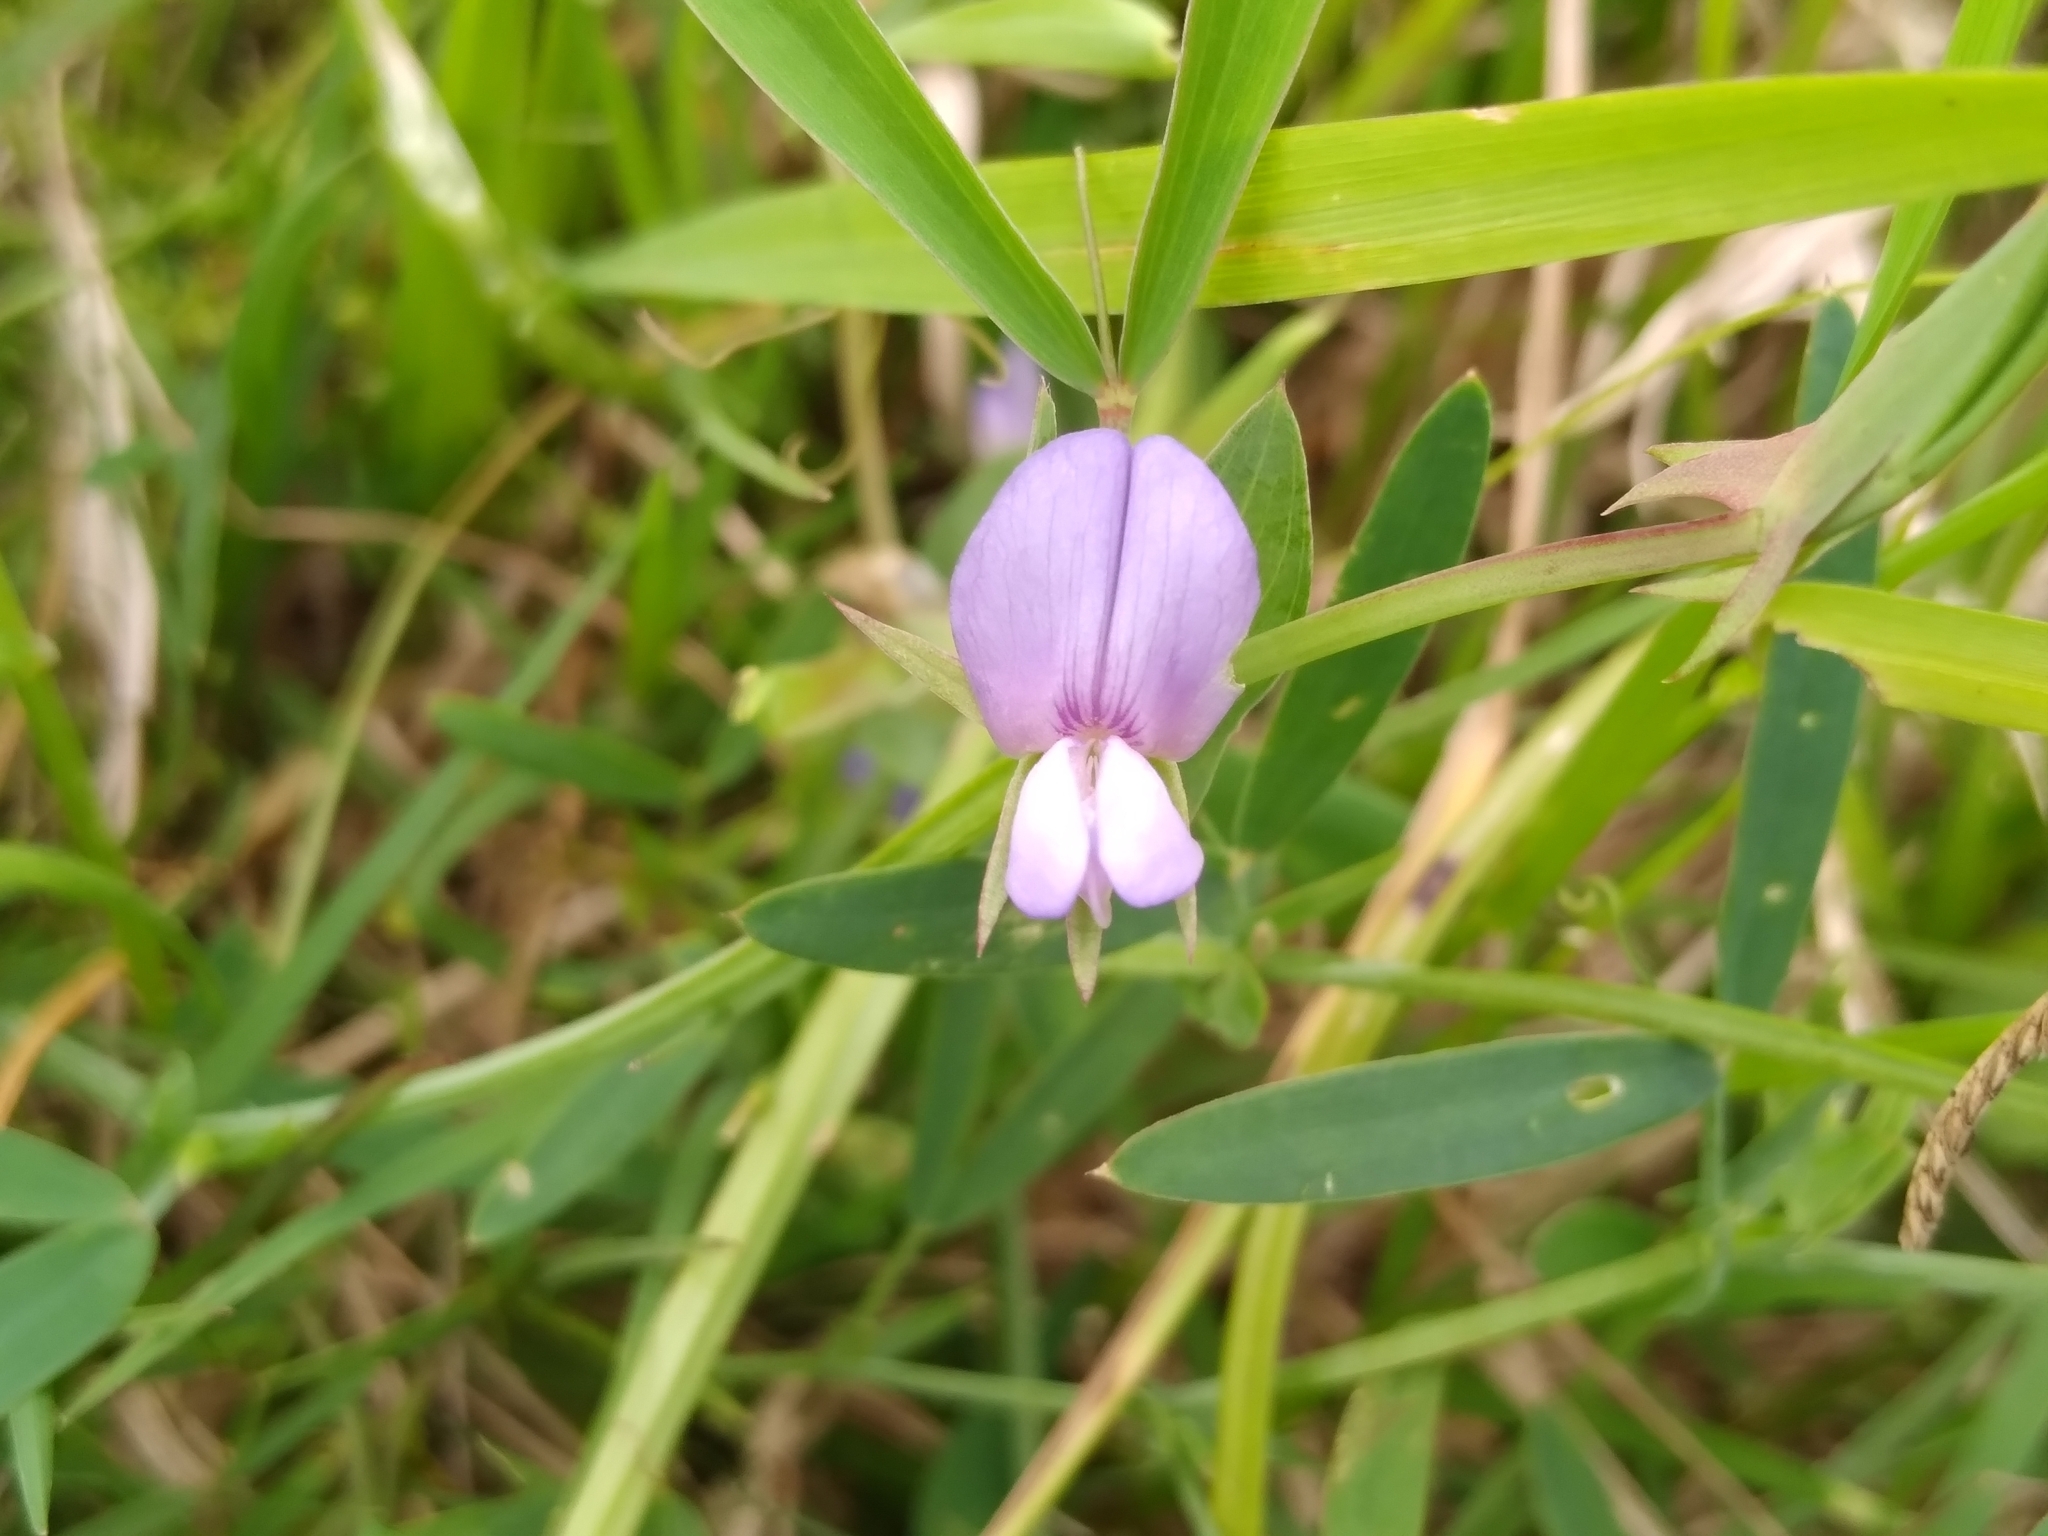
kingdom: Plantae
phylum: Tracheophyta
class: Magnoliopsida
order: Fabales
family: Fabaceae
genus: Lathyrus
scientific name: Lathyrus pusillus
